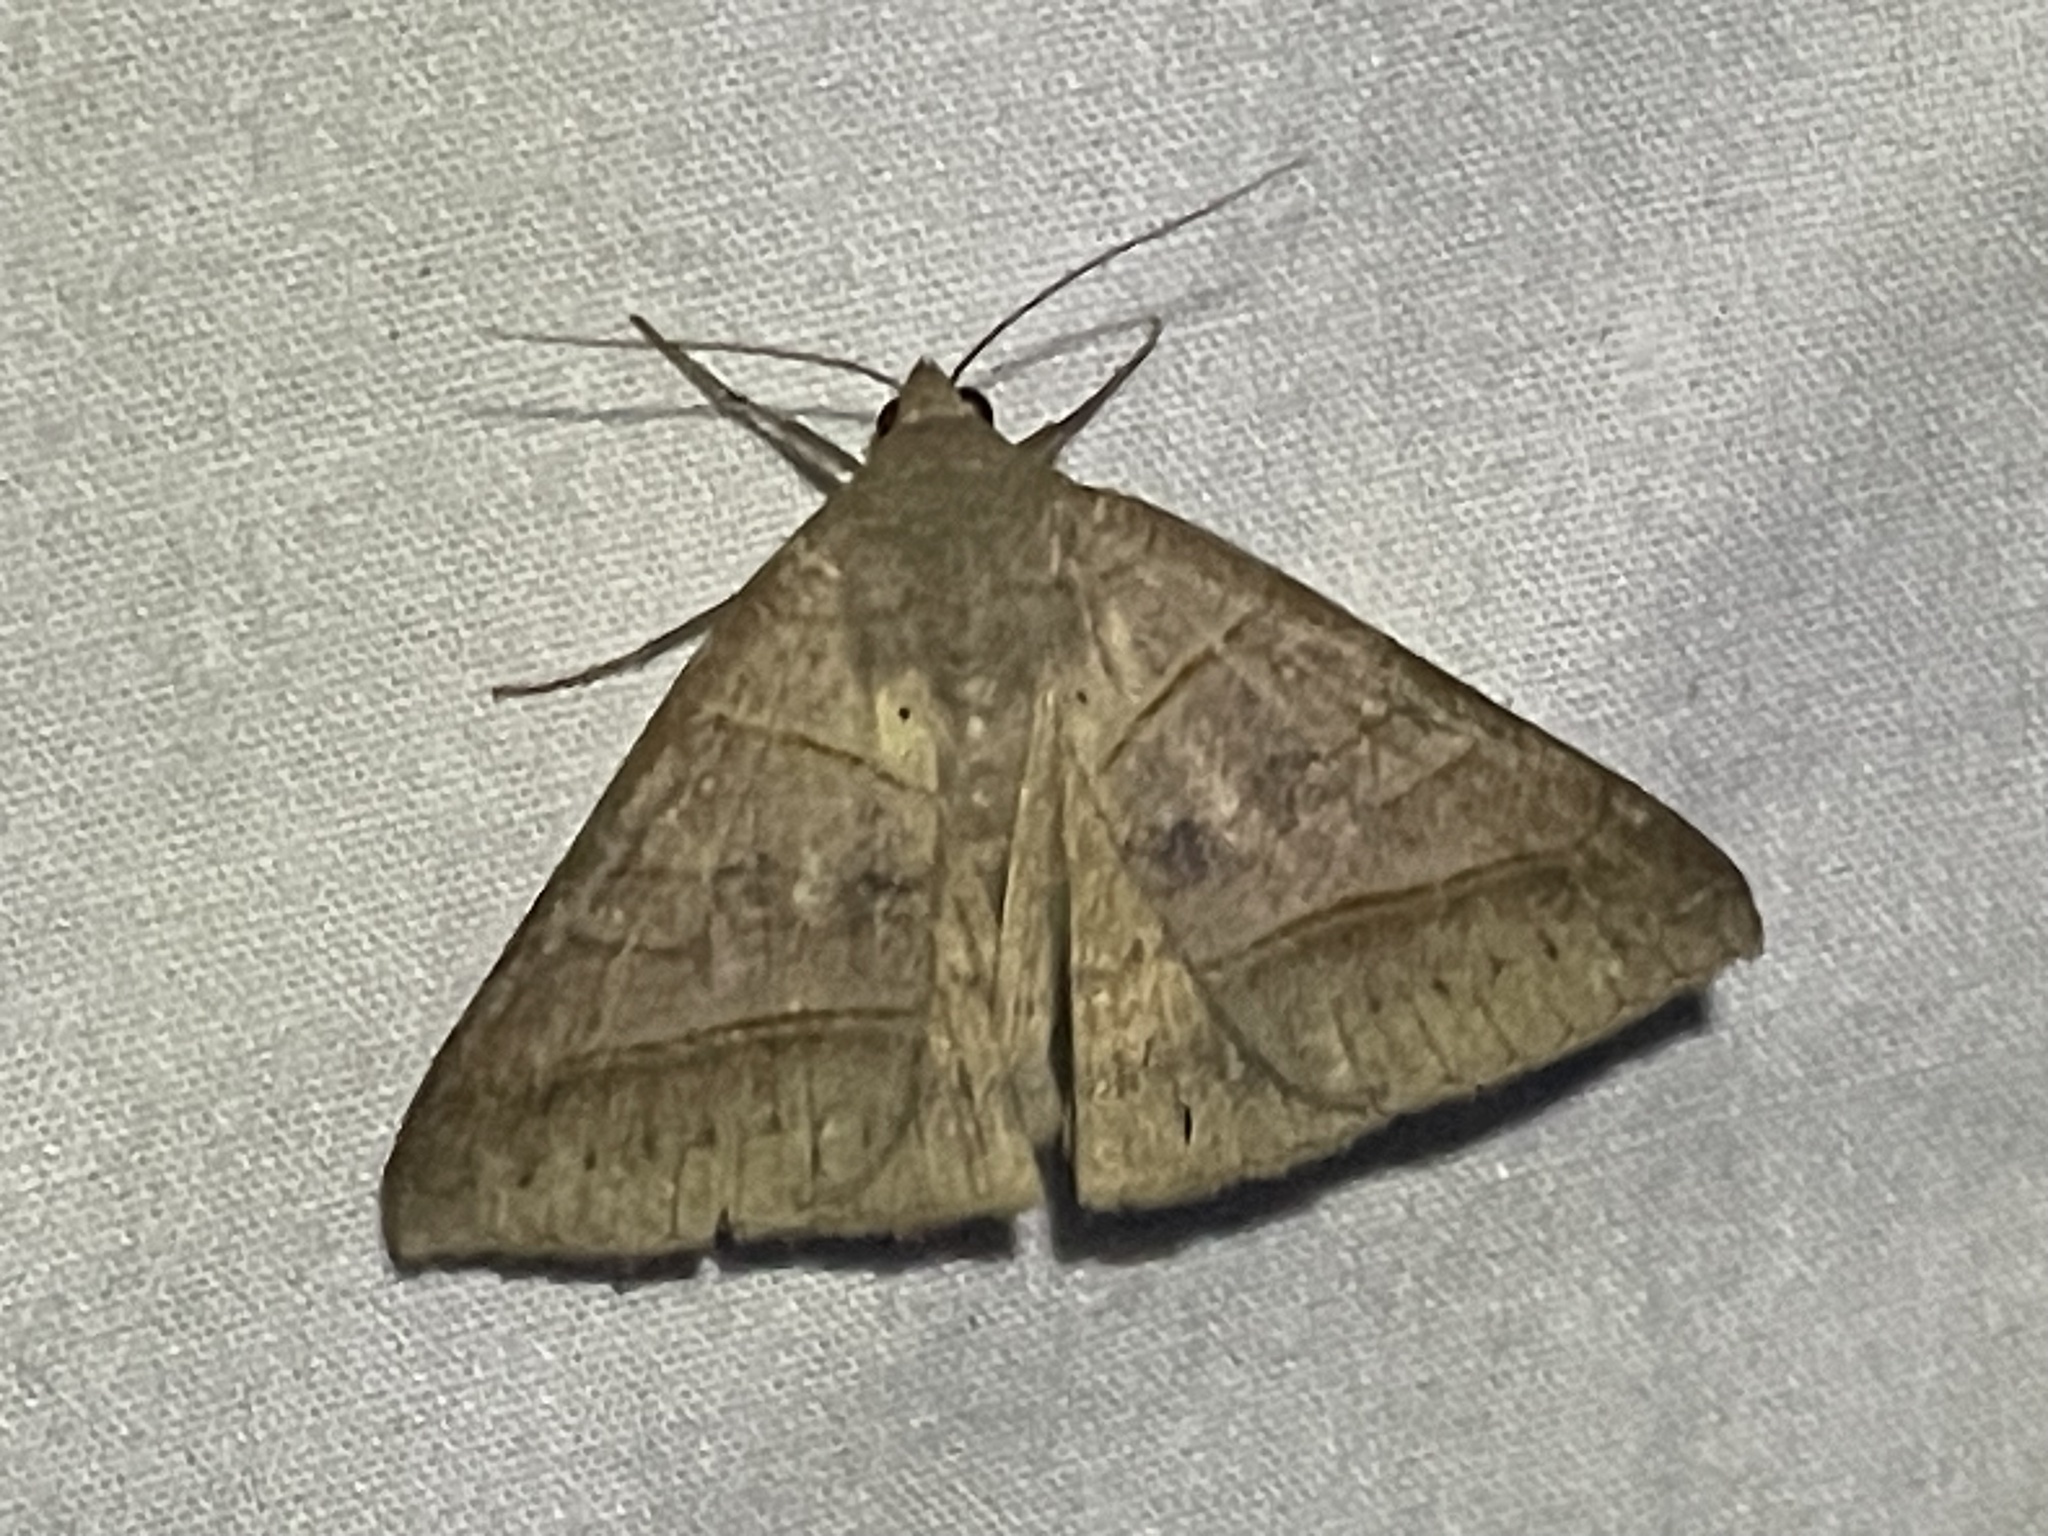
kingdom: Animalia
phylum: Arthropoda
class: Insecta
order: Lepidoptera
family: Erebidae
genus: Mocis
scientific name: Mocis texana
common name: Texas mocis moth
